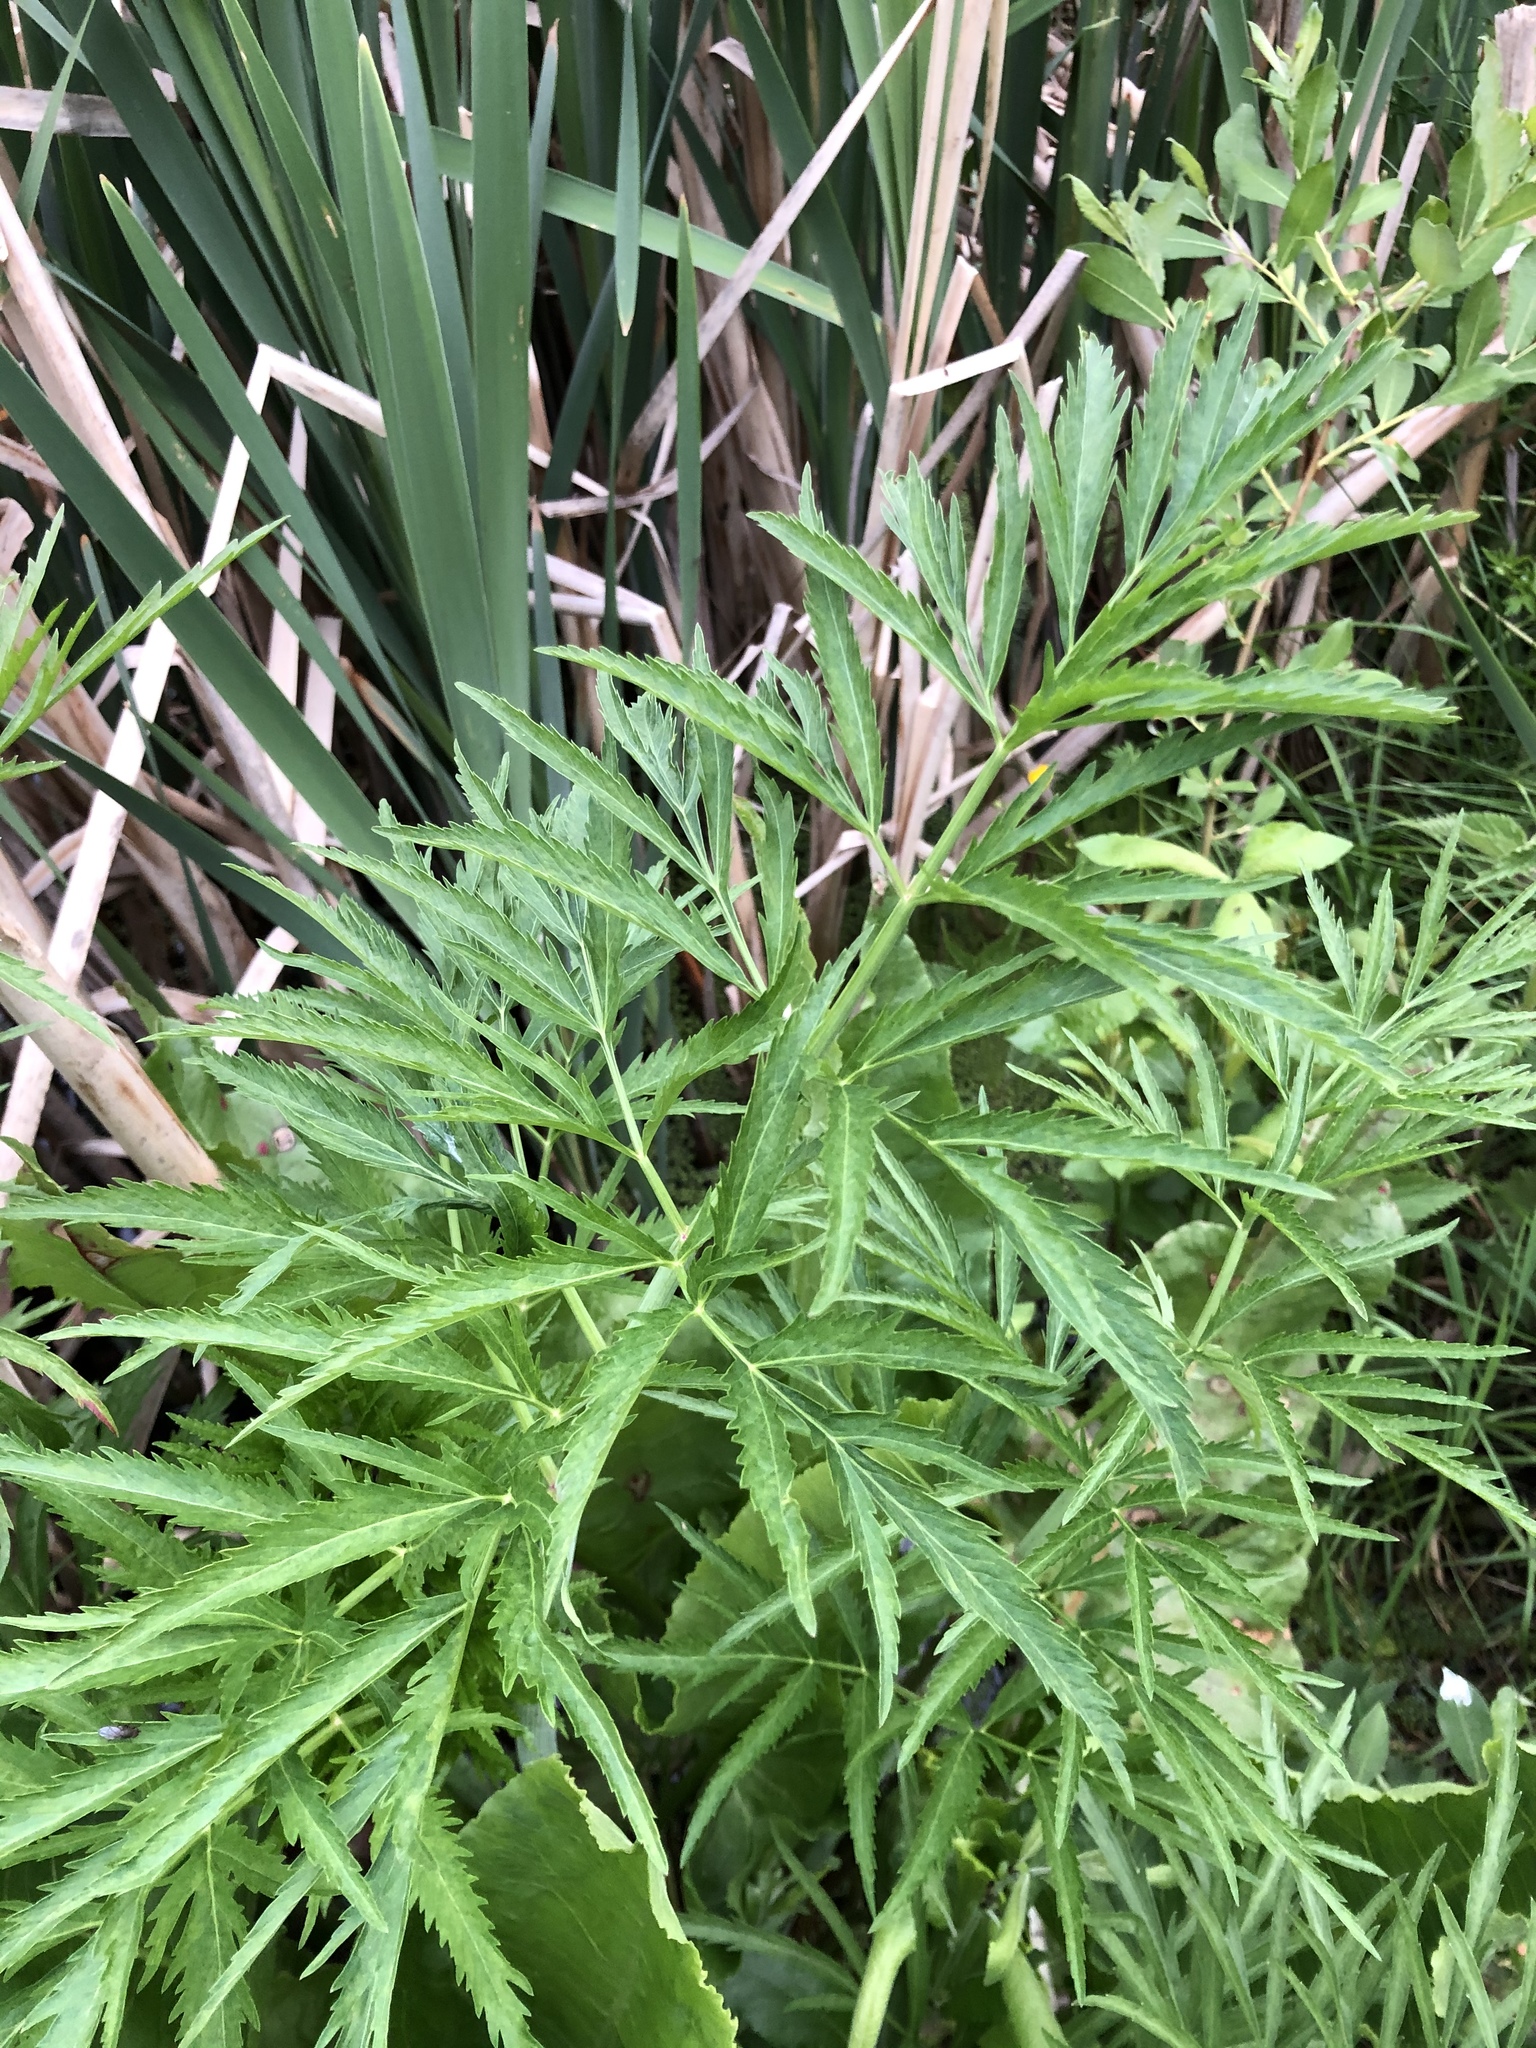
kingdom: Plantae
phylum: Tracheophyta
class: Magnoliopsida
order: Apiales
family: Apiaceae
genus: Cicuta
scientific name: Cicuta virosa
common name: Cowbane
